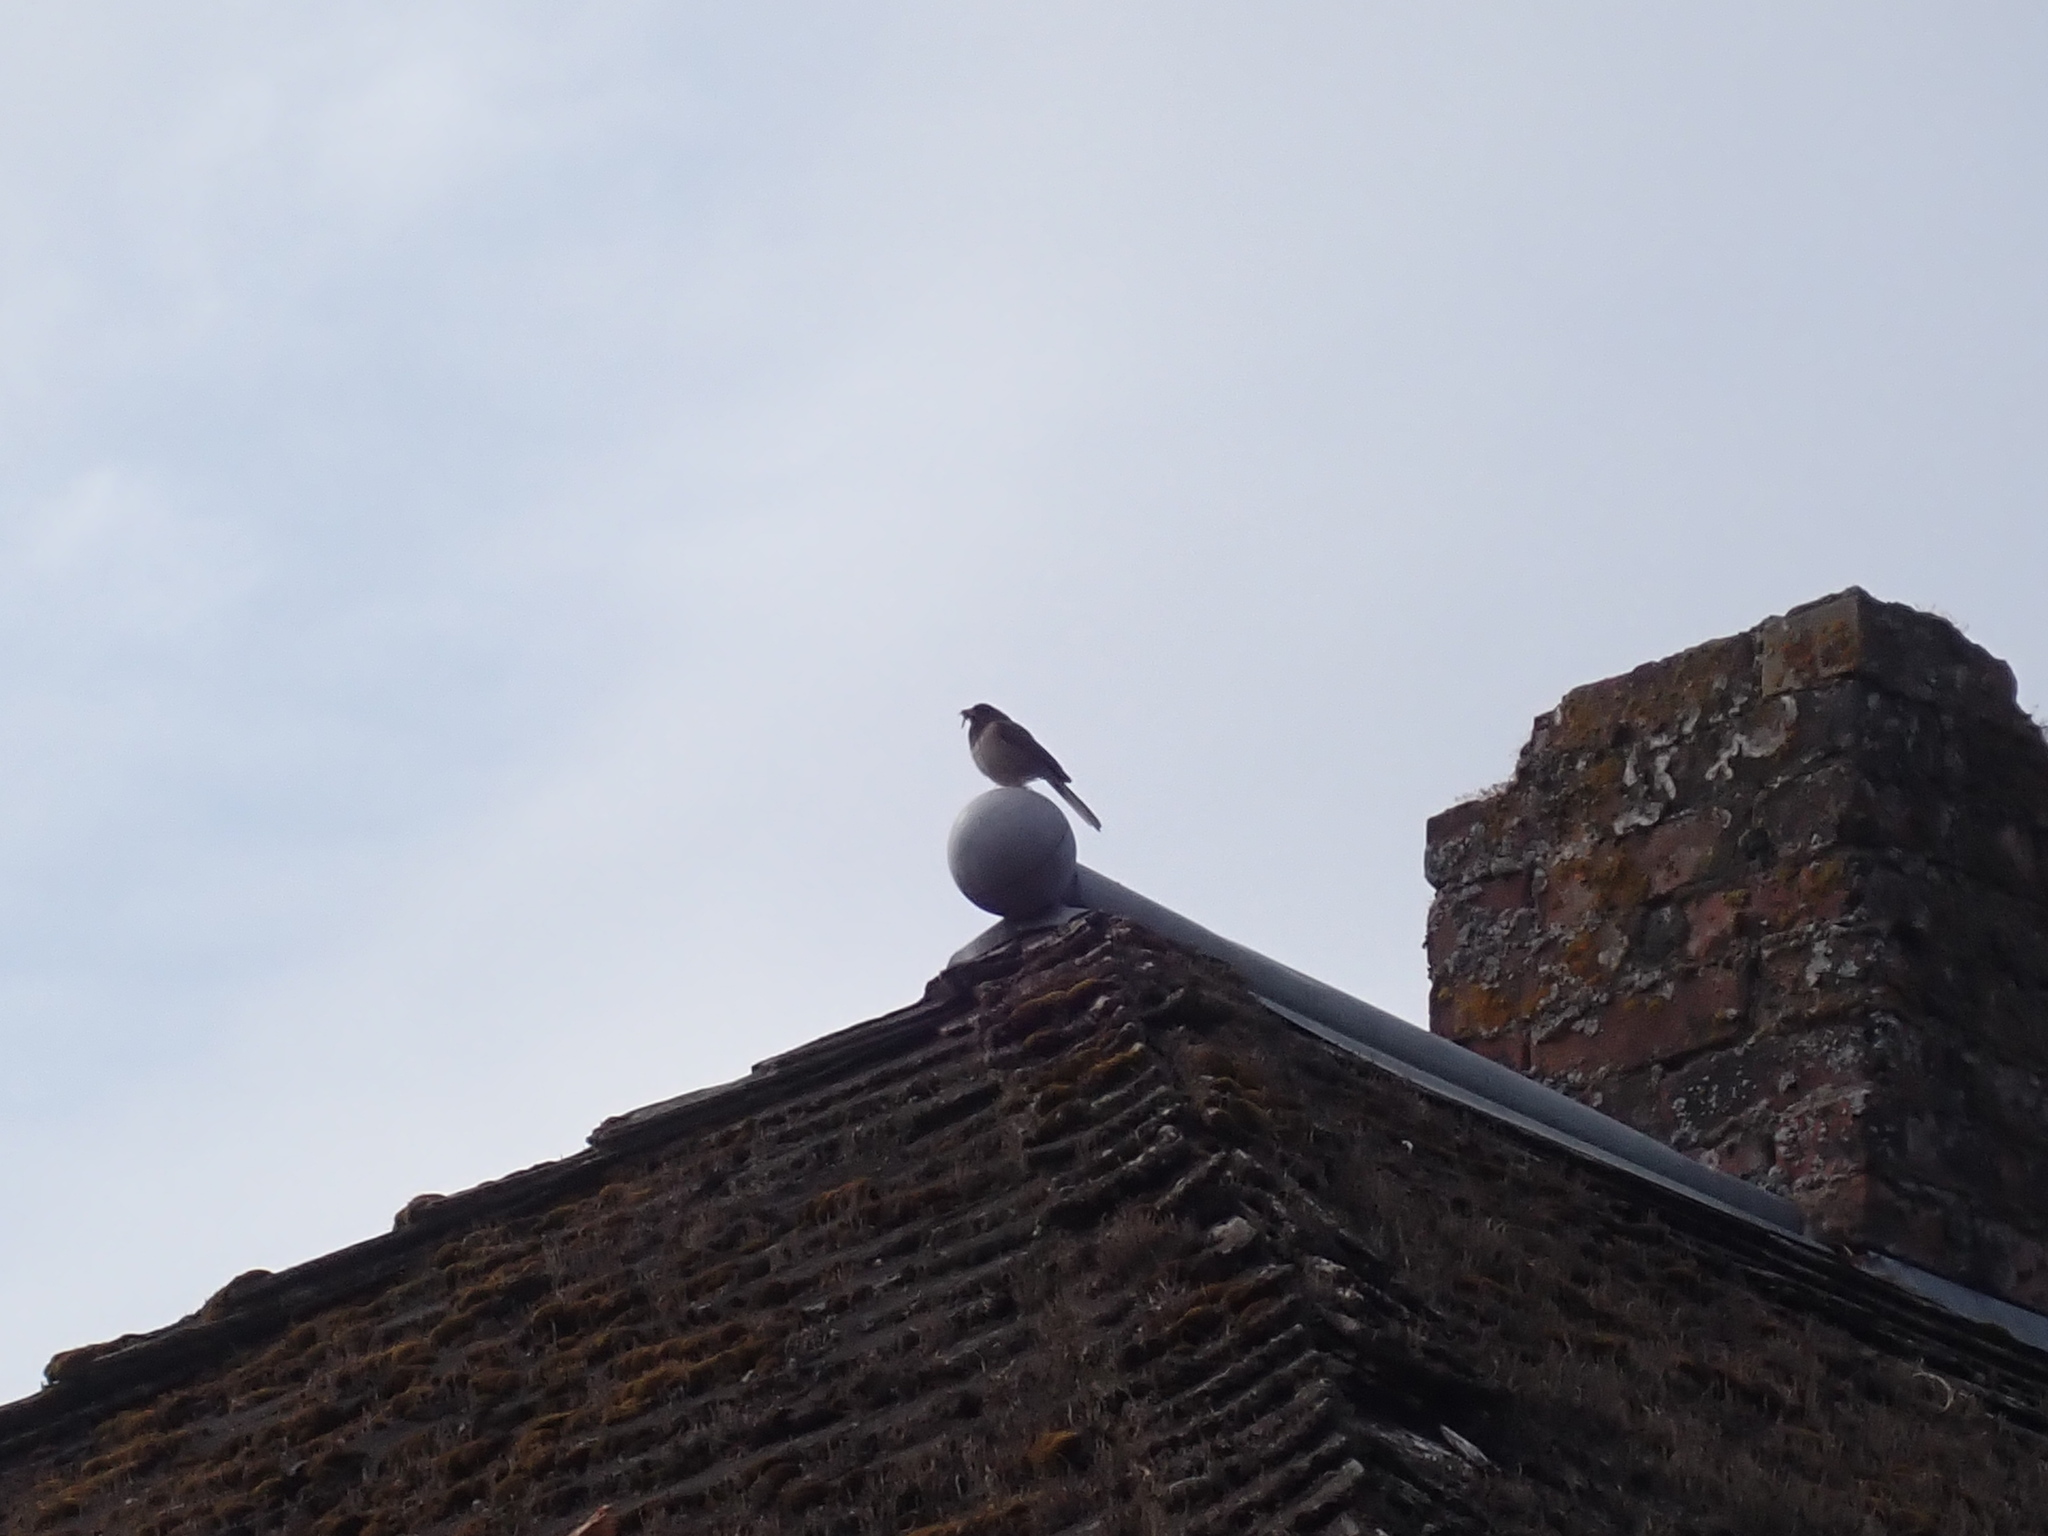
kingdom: Animalia
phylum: Chordata
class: Aves
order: Passeriformes
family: Passerellidae
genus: Junco
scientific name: Junco hyemalis
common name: Dark-eyed junco
